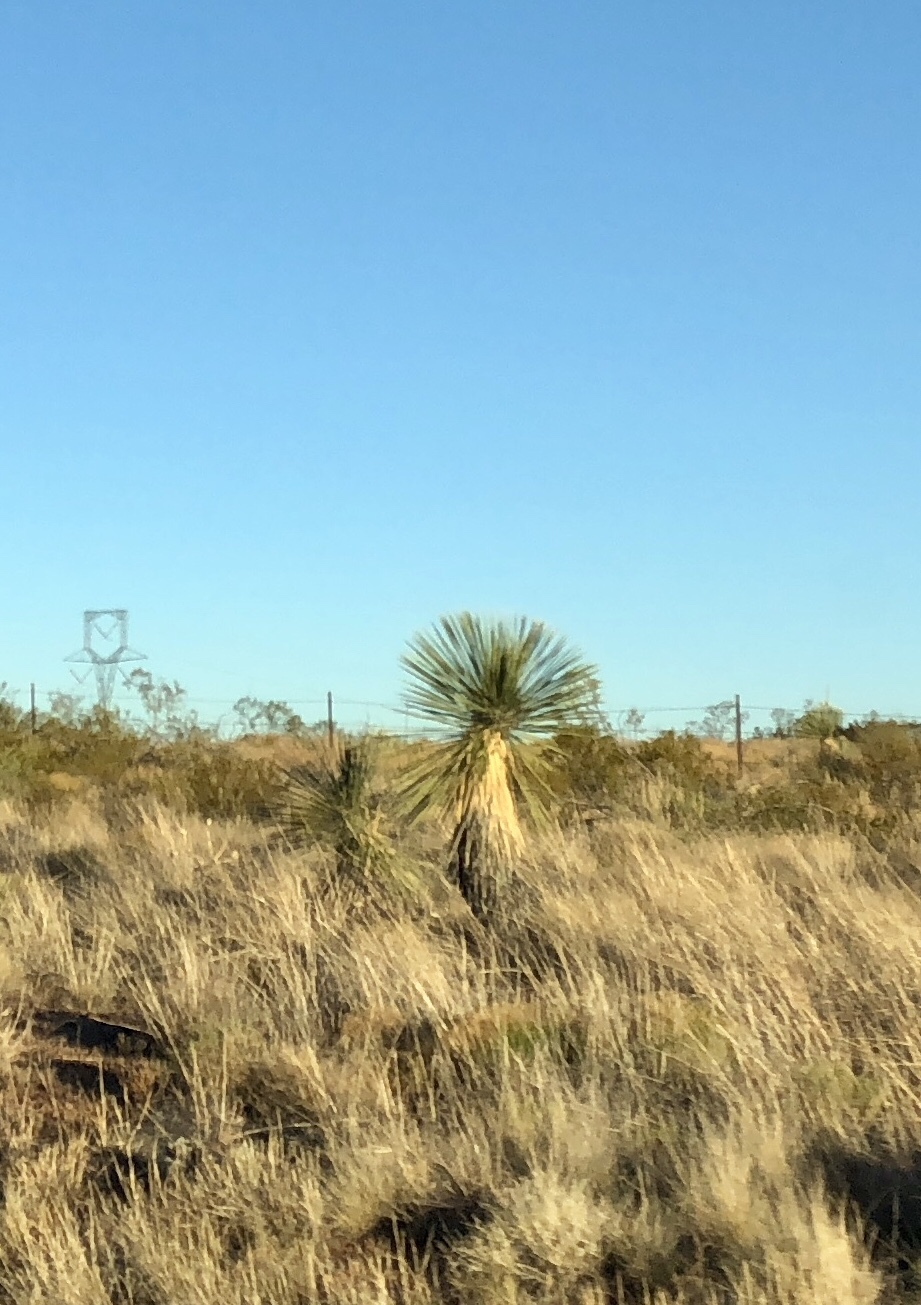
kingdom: Plantae
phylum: Tracheophyta
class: Liliopsida
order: Asparagales
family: Asparagaceae
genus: Yucca
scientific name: Yucca elata
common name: Palmella
